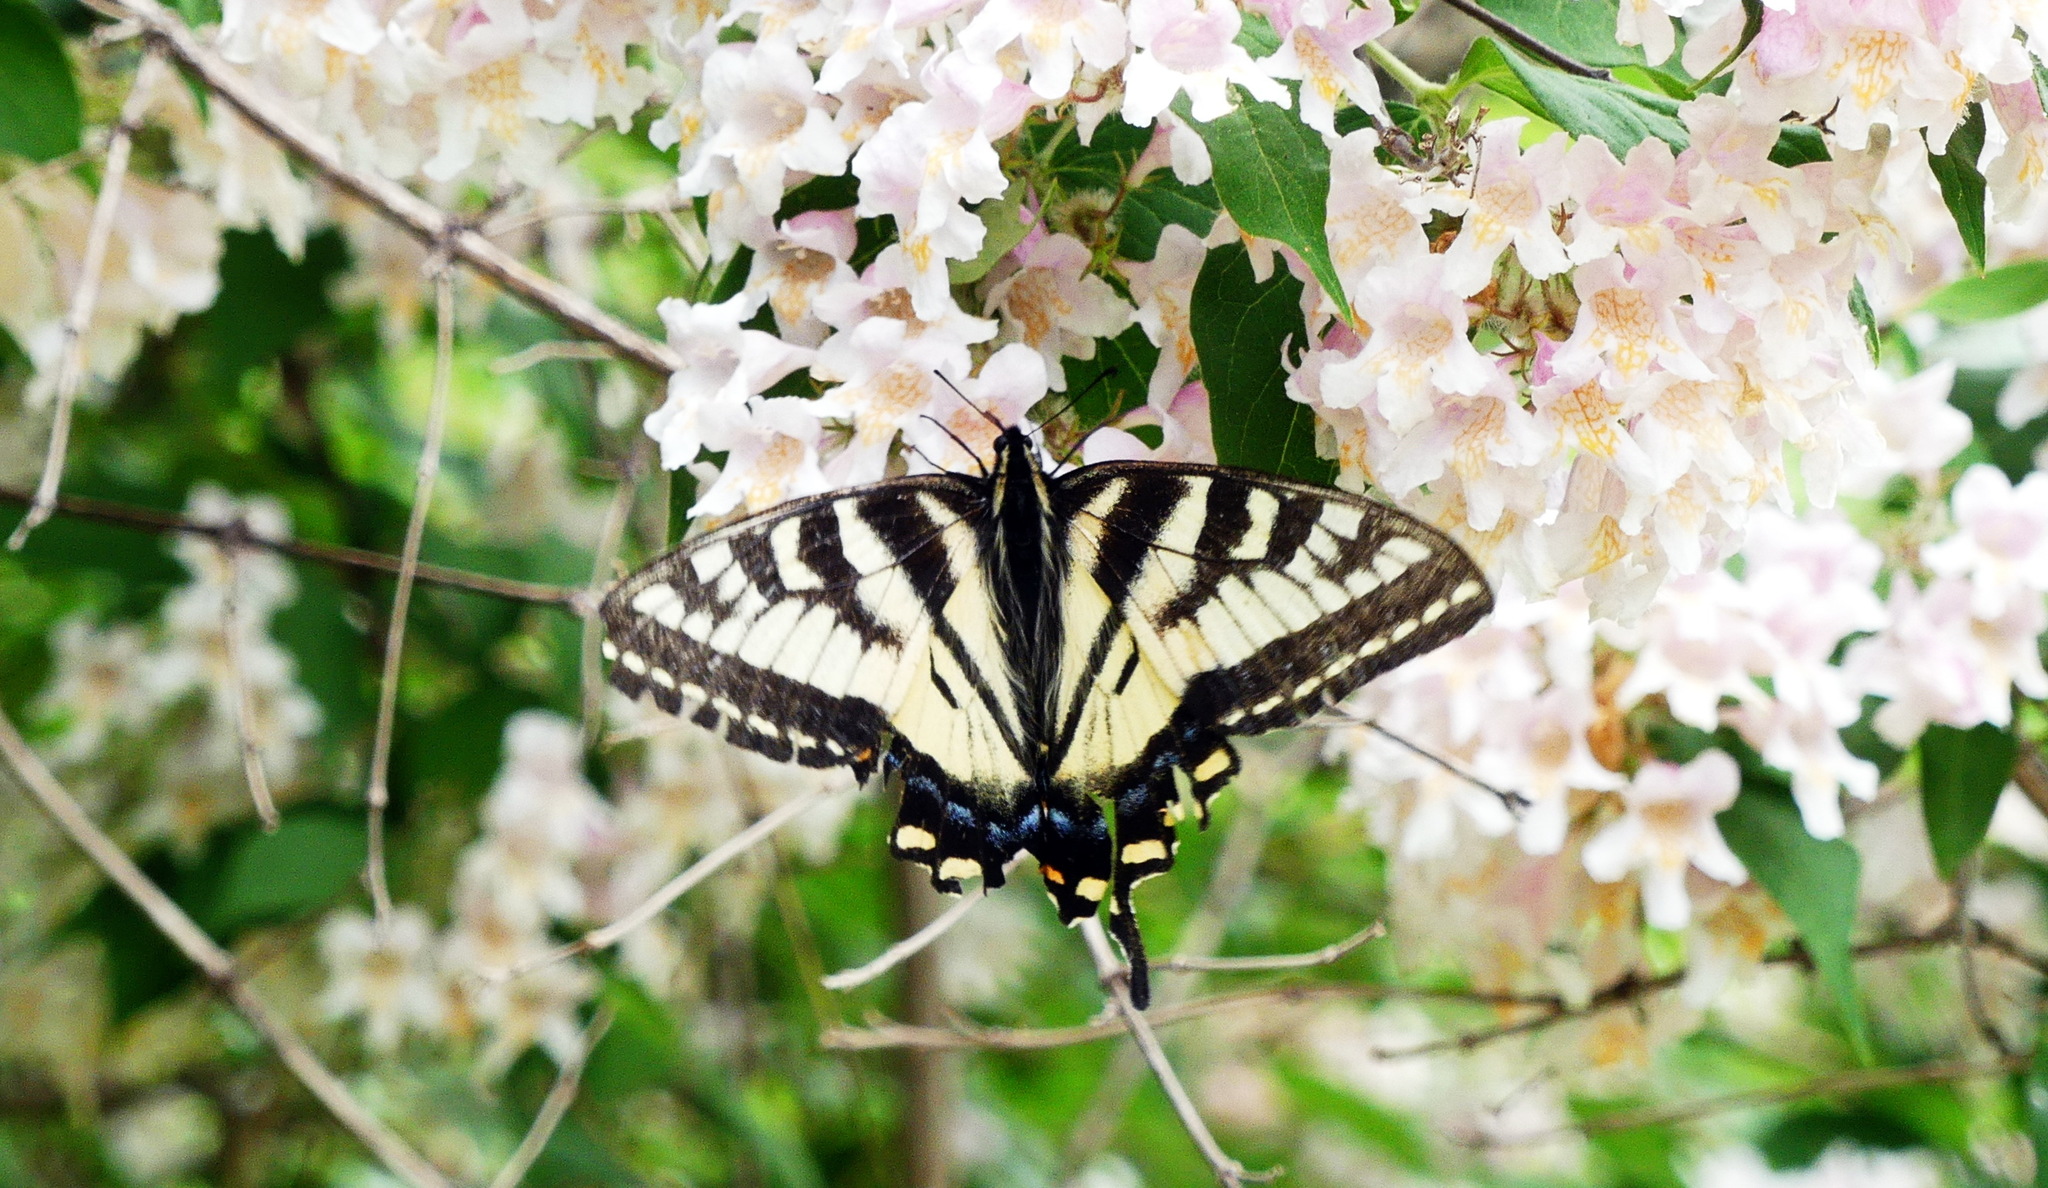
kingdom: Animalia
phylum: Arthropoda
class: Insecta
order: Lepidoptera
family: Papilionidae
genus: Papilio
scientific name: Papilio canadensis
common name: Canadian tiger swallowtail
